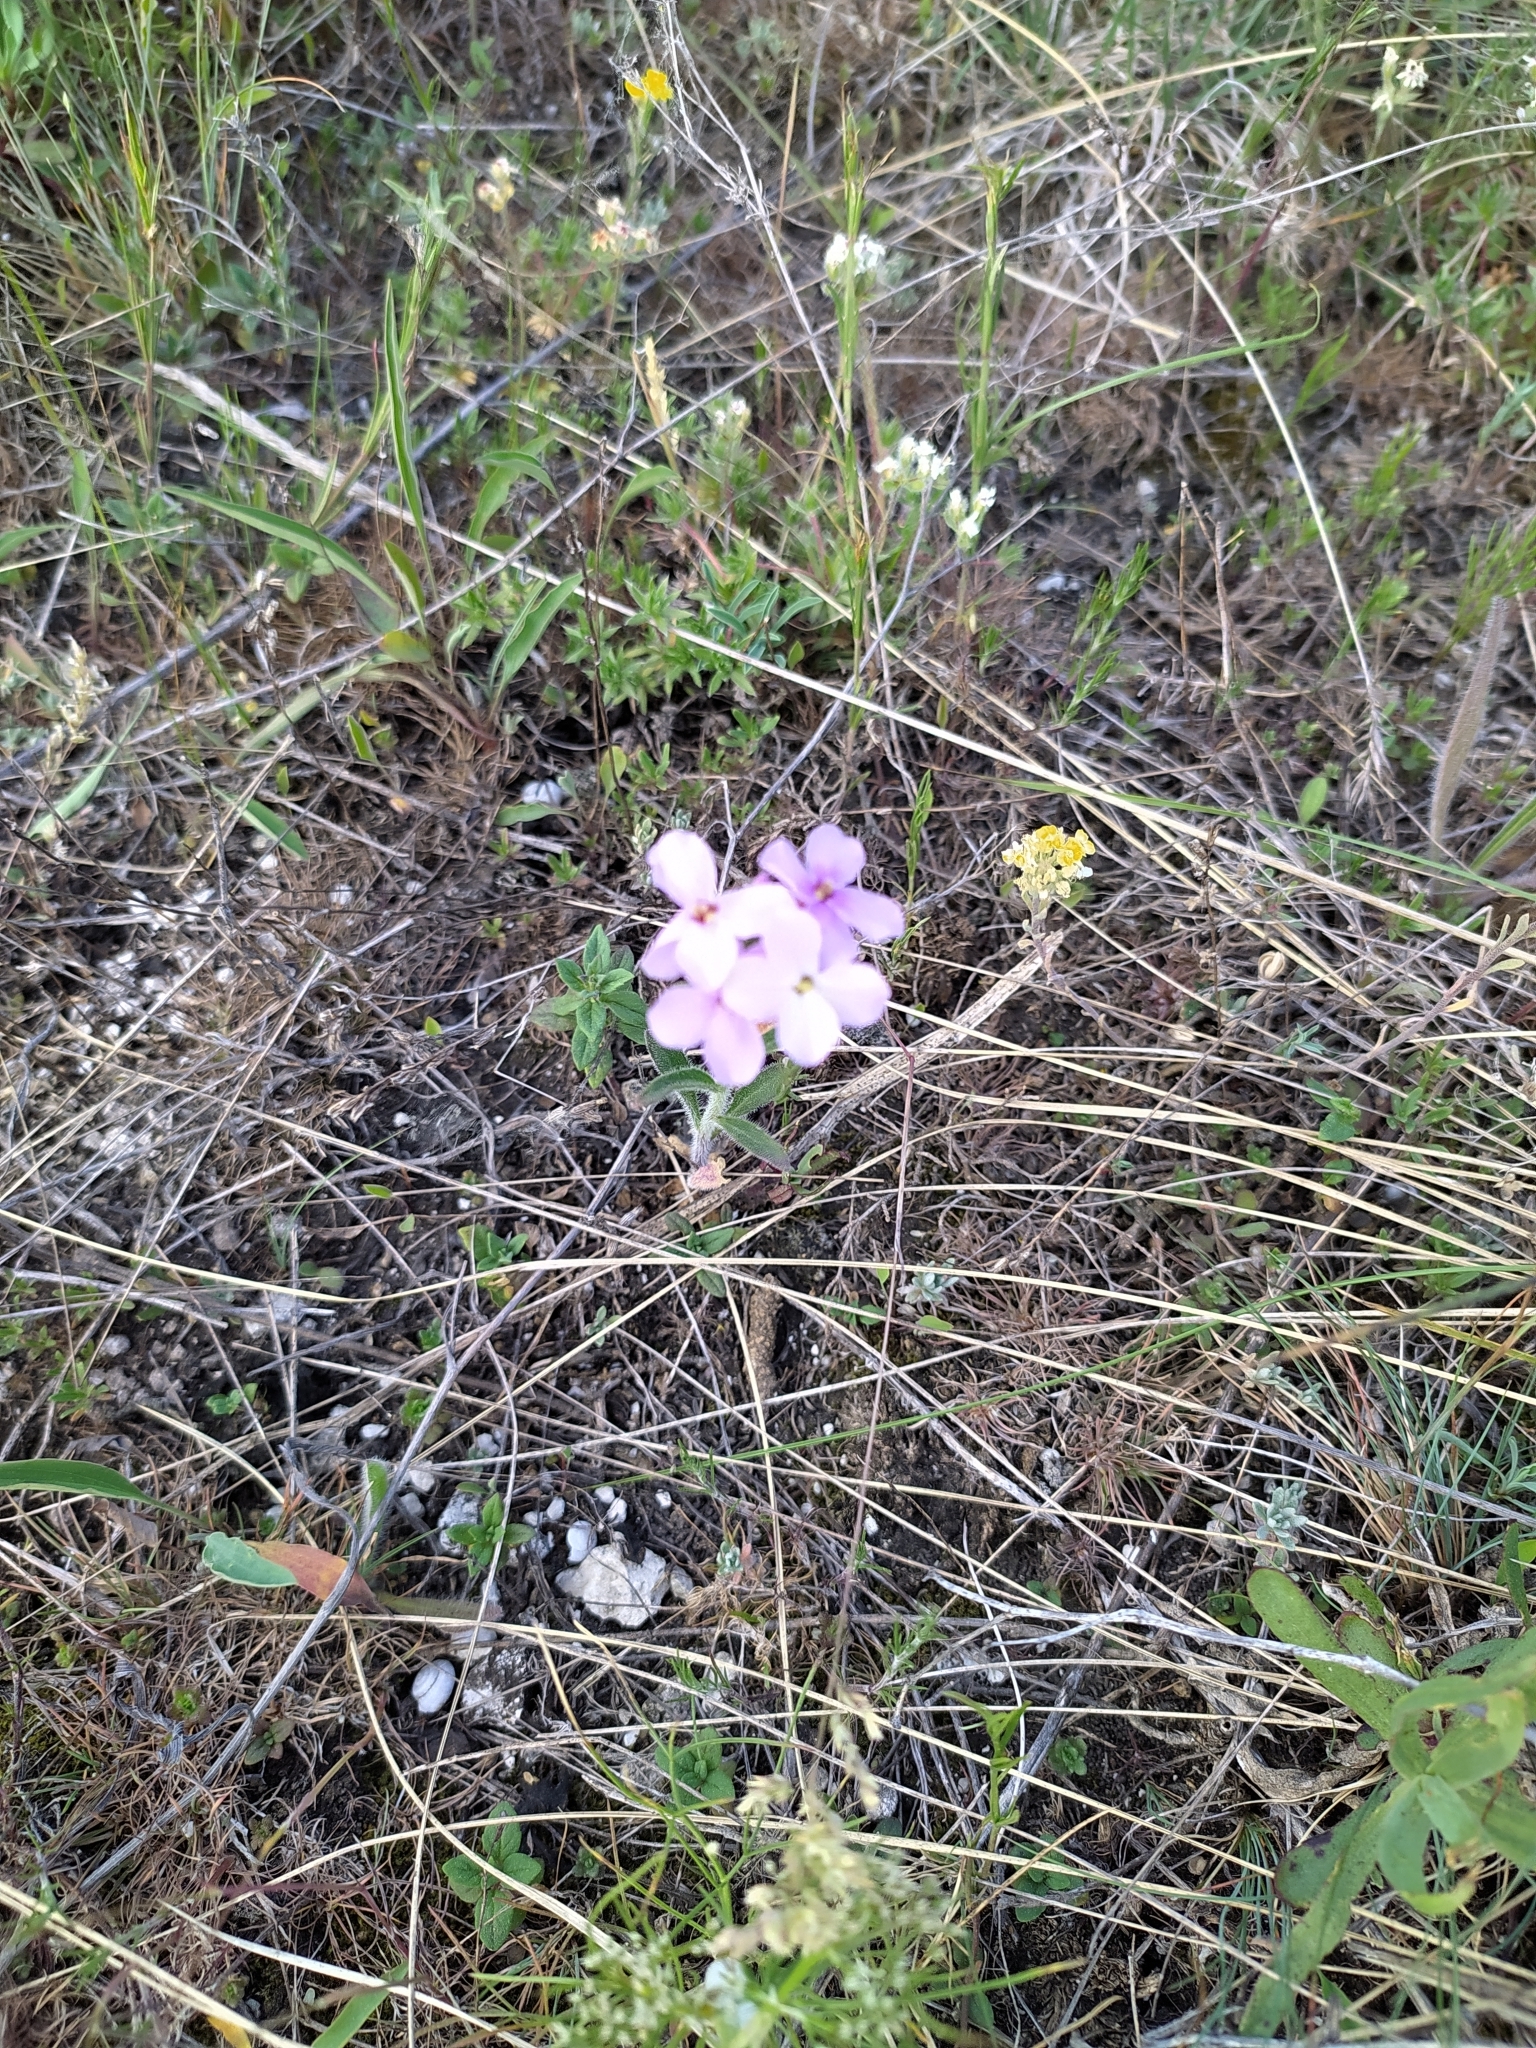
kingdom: Plantae
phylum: Tracheophyta
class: Magnoliopsida
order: Brassicales
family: Brassicaceae
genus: Clausia
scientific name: Clausia aprica
